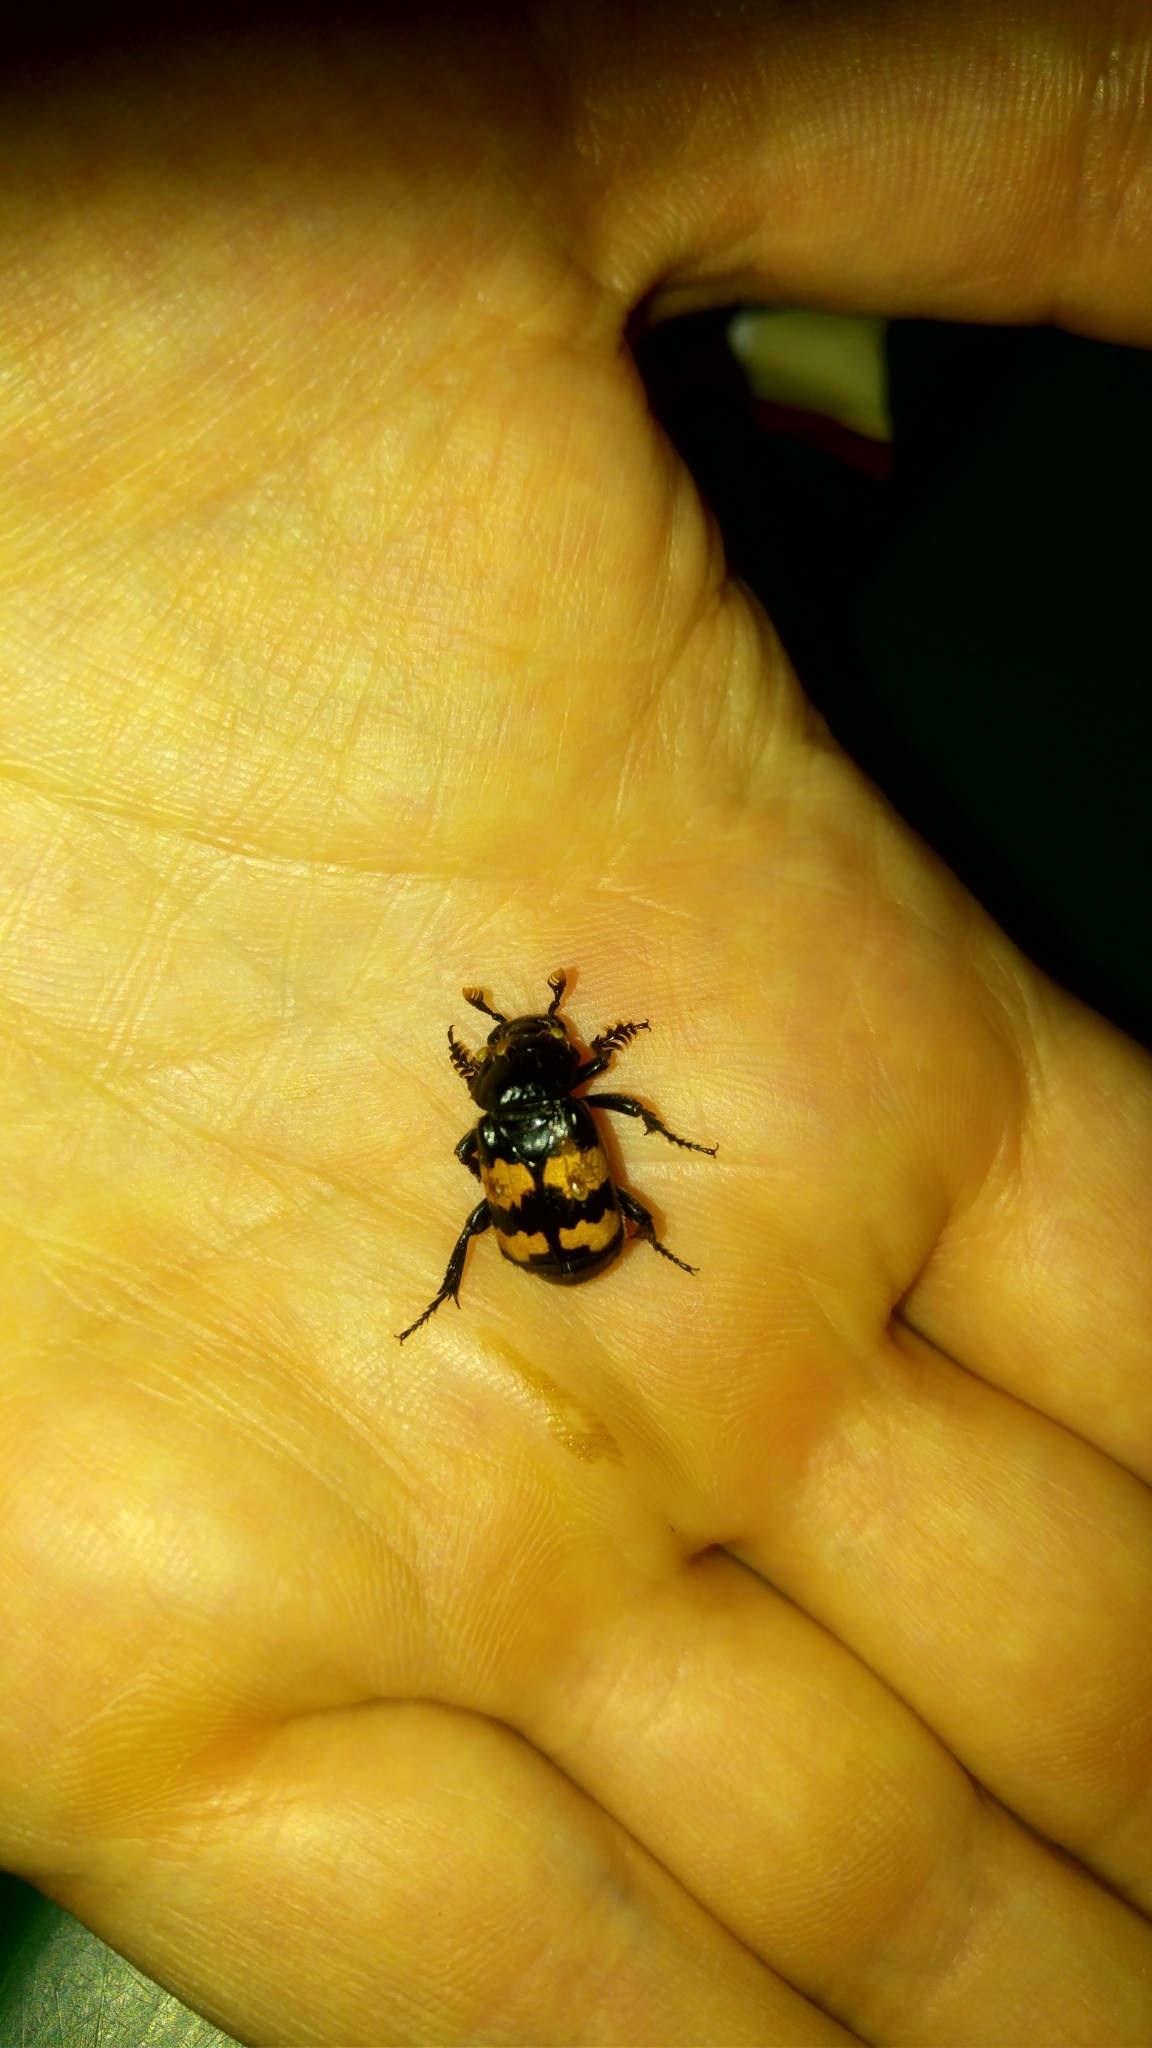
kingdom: Animalia
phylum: Arthropoda
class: Insecta
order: Coleoptera
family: Staphylinidae
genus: Nicrophorus
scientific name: Nicrophorus interruptus
